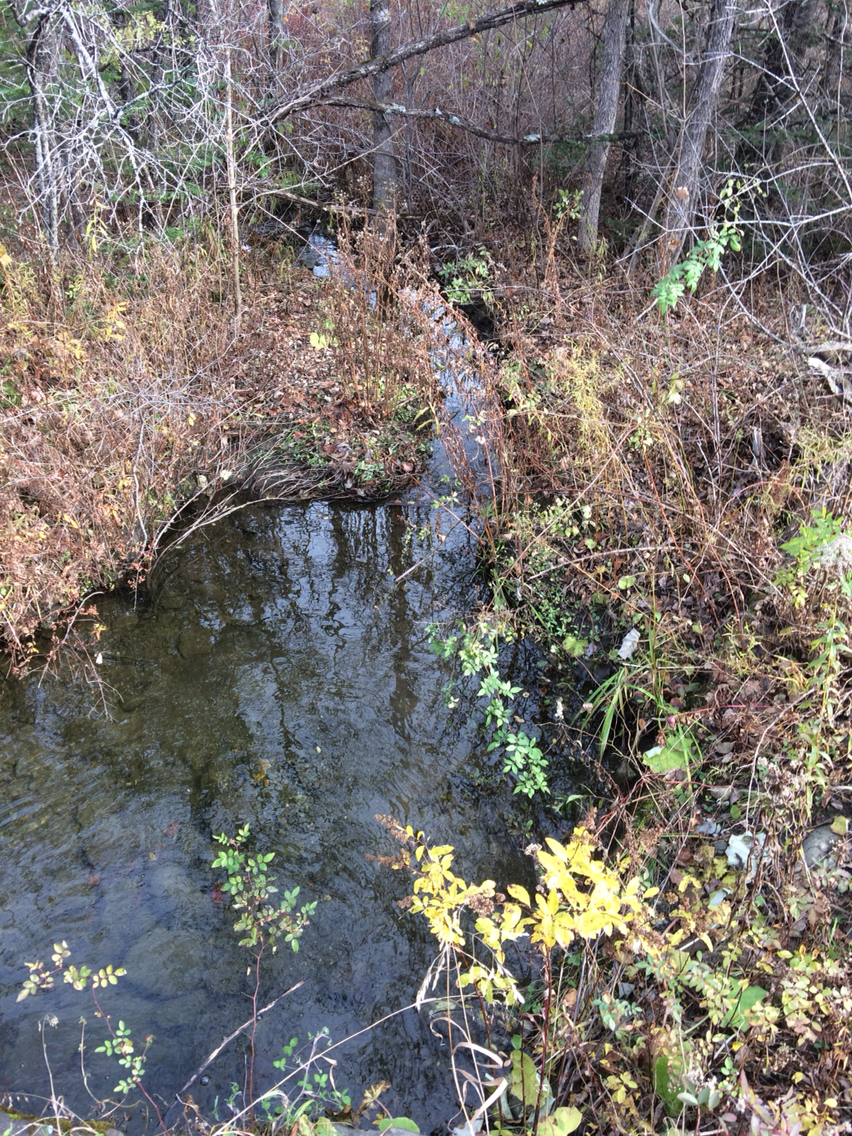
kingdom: Plantae
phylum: Tracheophyta
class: Magnoliopsida
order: Rosales
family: Rosaceae
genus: Rosa
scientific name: Rosa multiflora
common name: Multiflora rose
